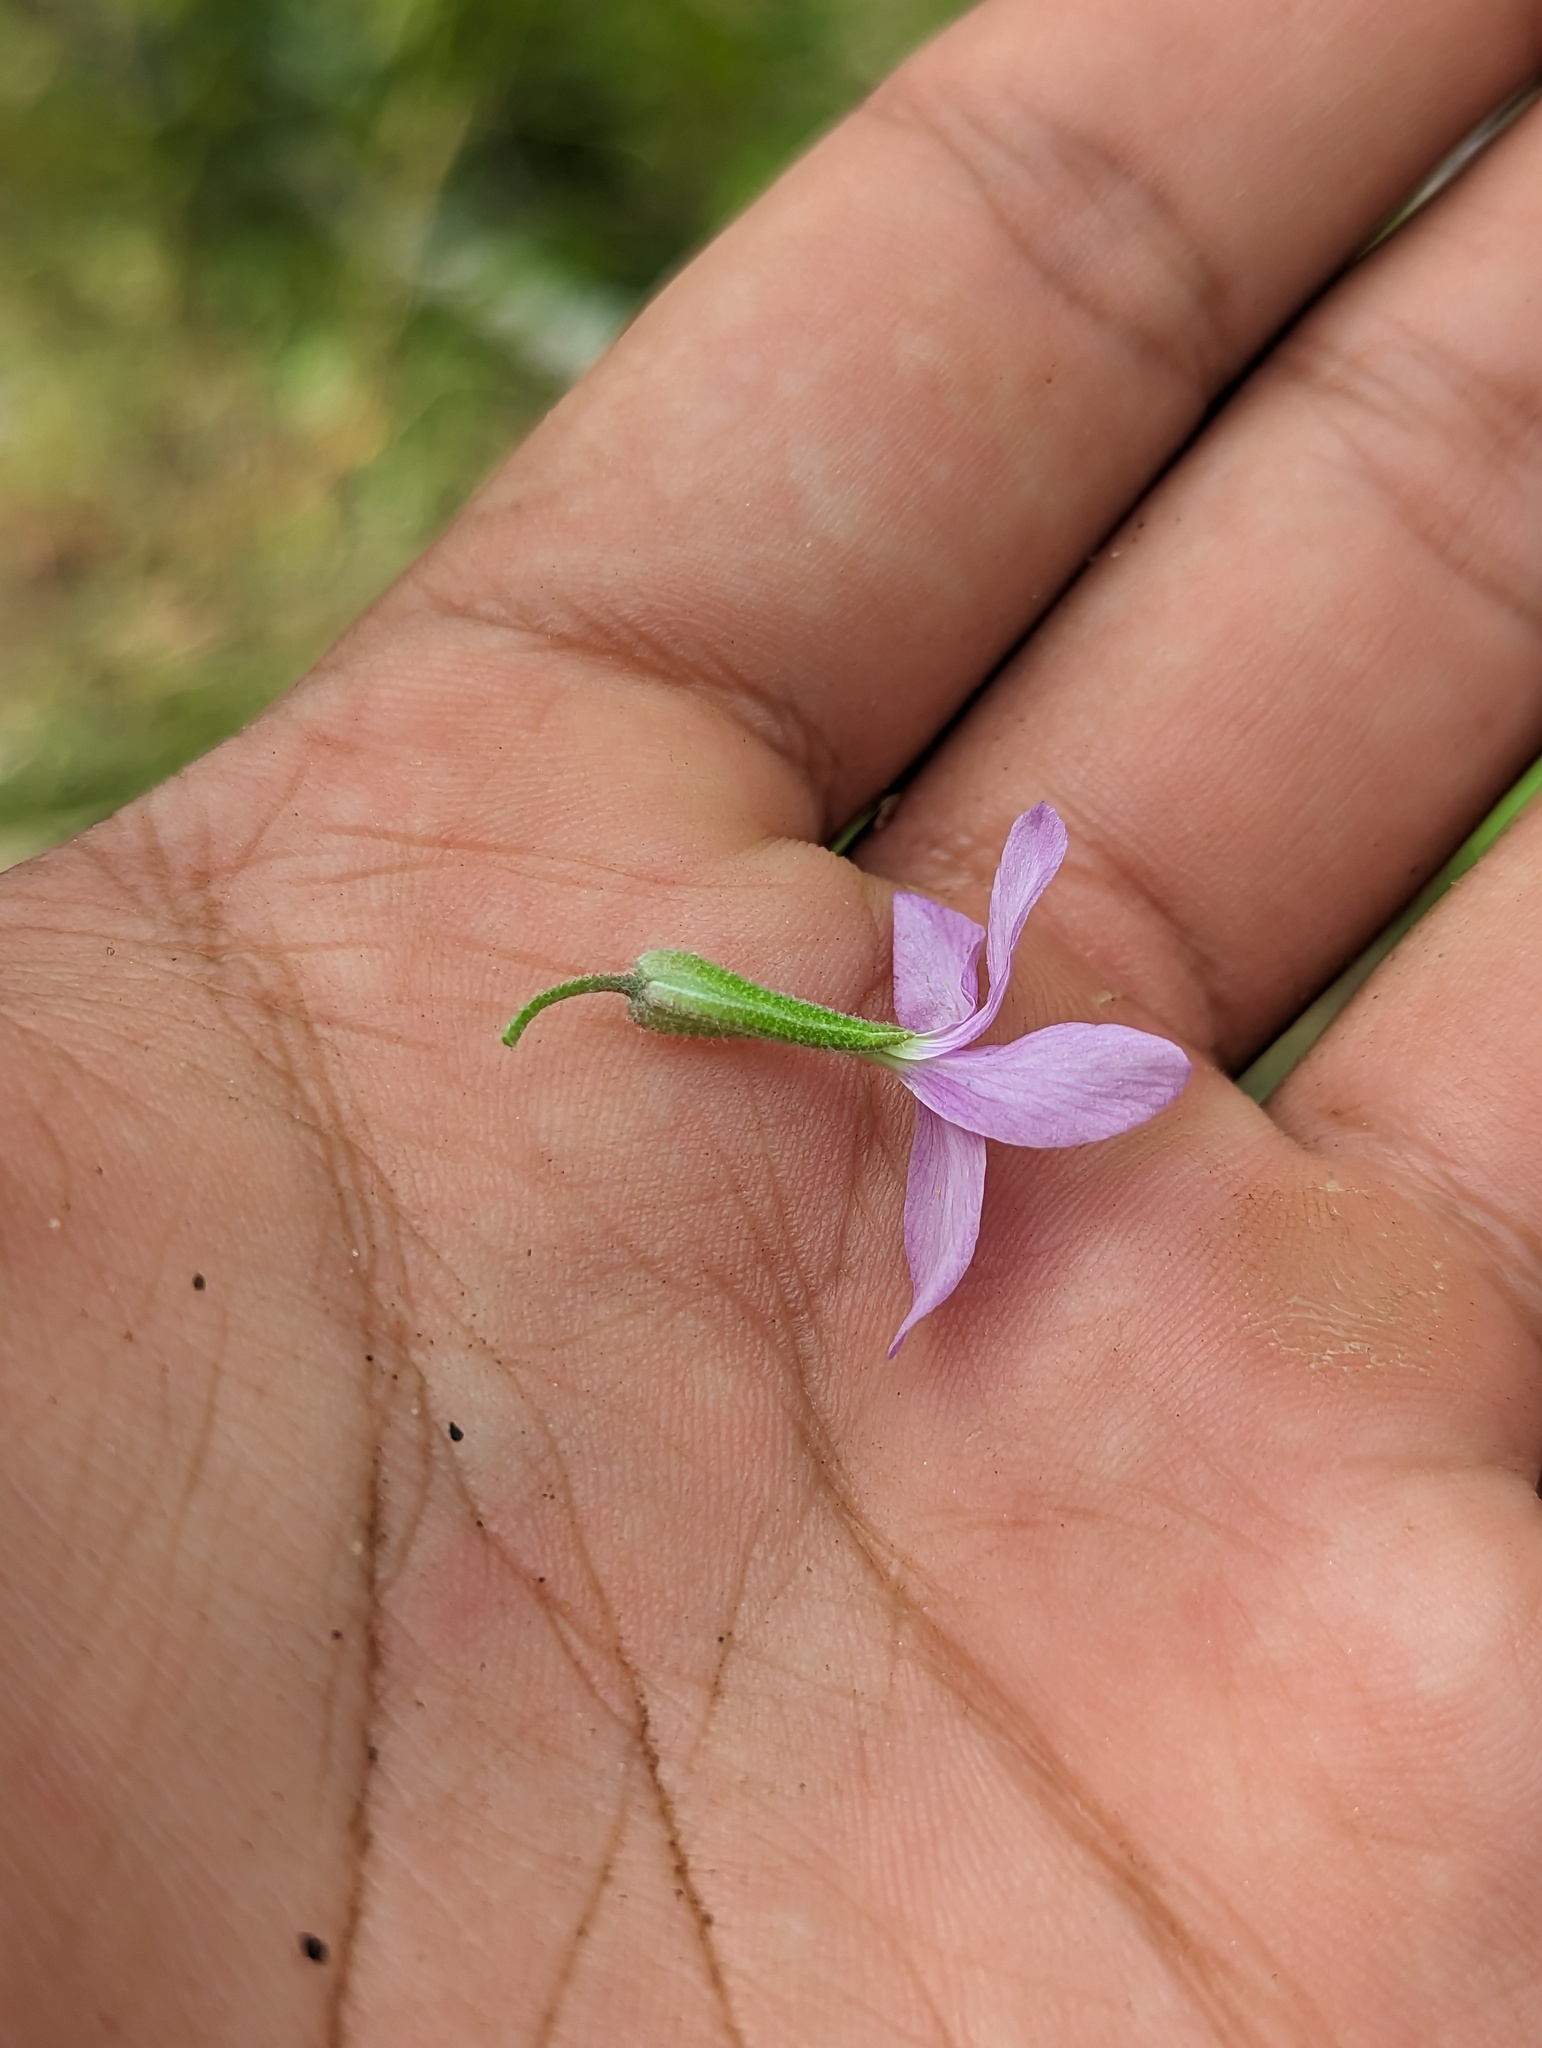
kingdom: Plantae
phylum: Tracheophyta
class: Magnoliopsida
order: Brassicales
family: Brassicaceae
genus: Lyrocarpa
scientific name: Lyrocarpa xantii
